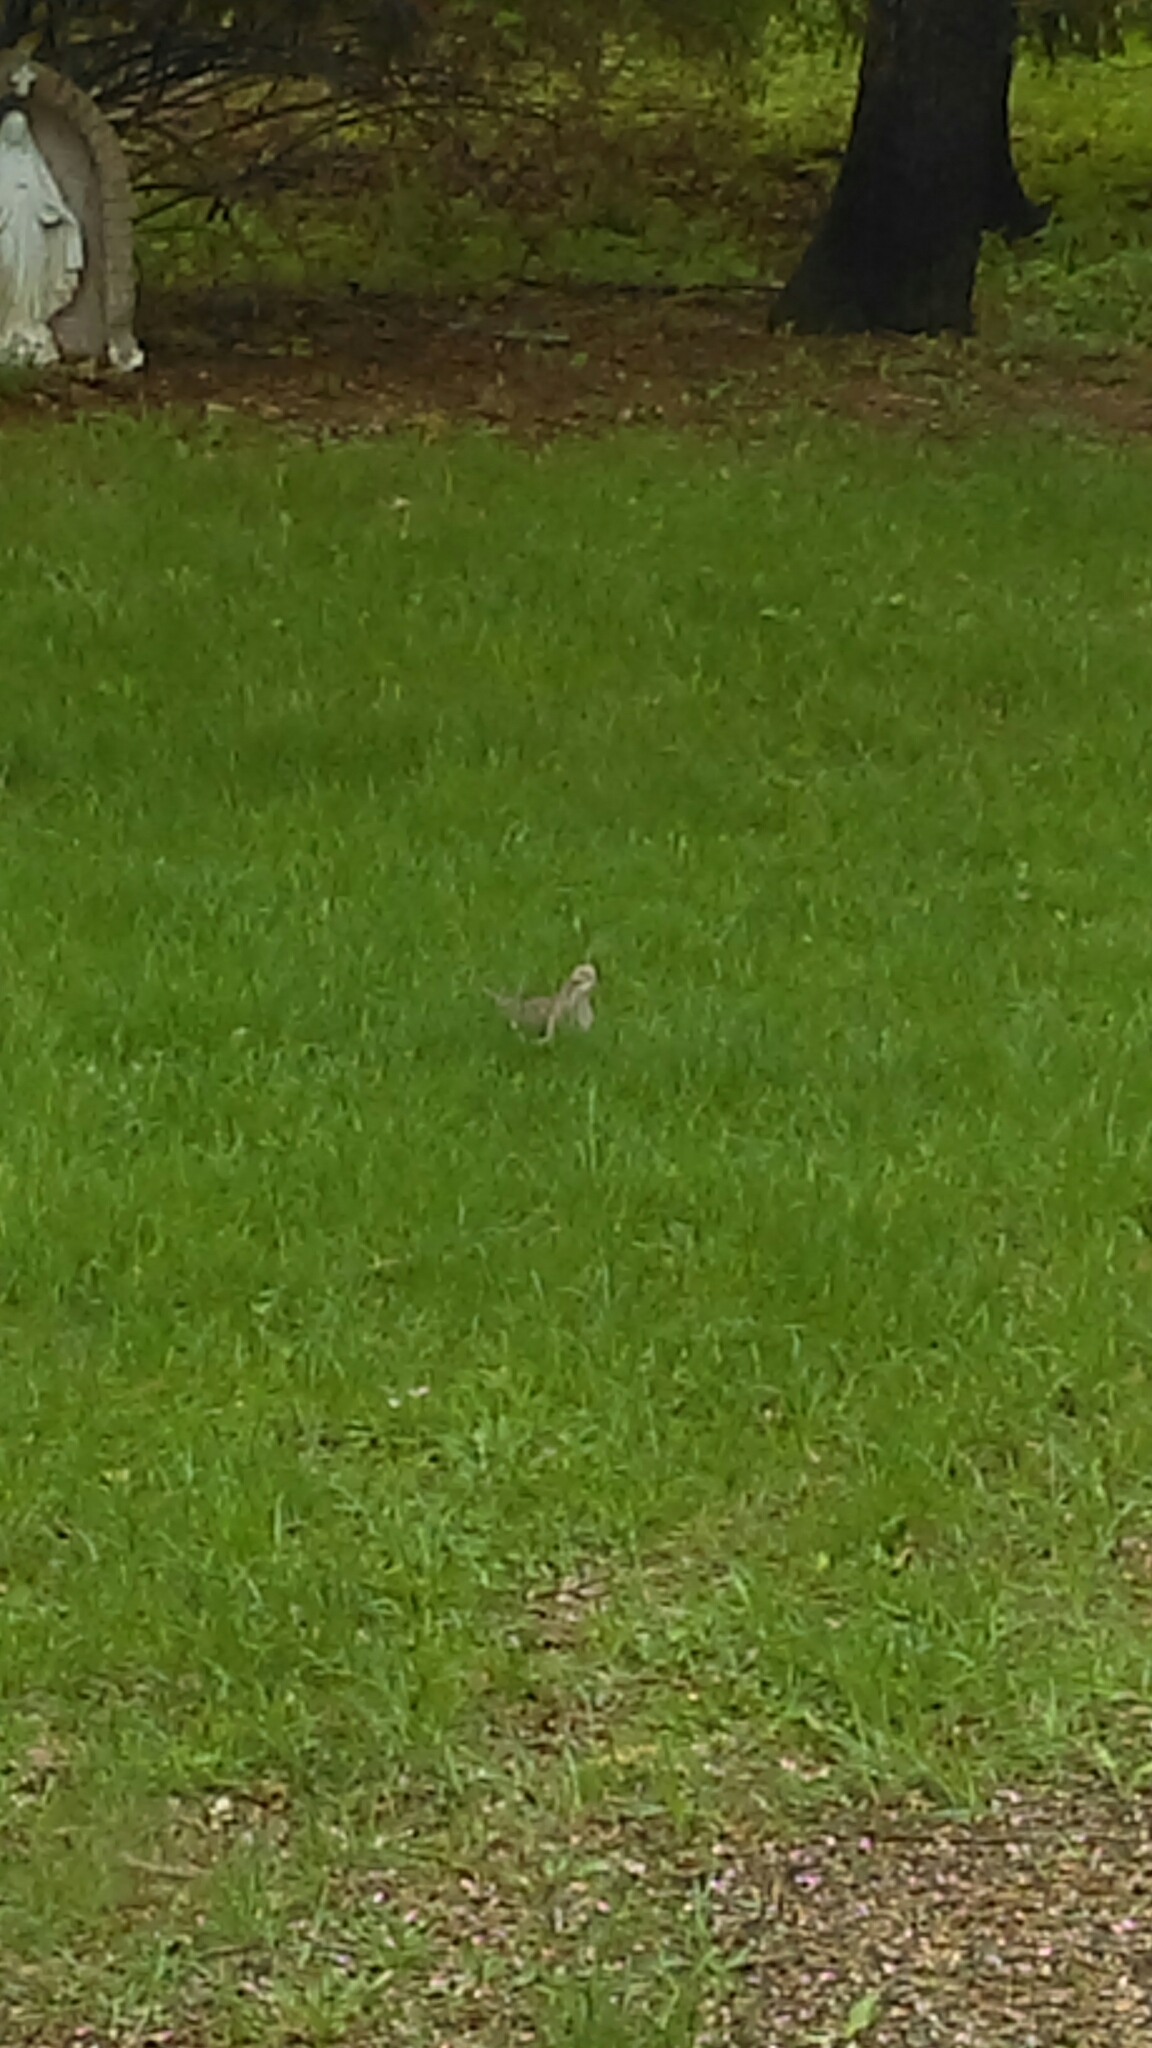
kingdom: Animalia
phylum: Chordata
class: Aves
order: Columbiformes
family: Columbidae
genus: Zenaida
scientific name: Zenaida macroura
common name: Mourning dove
